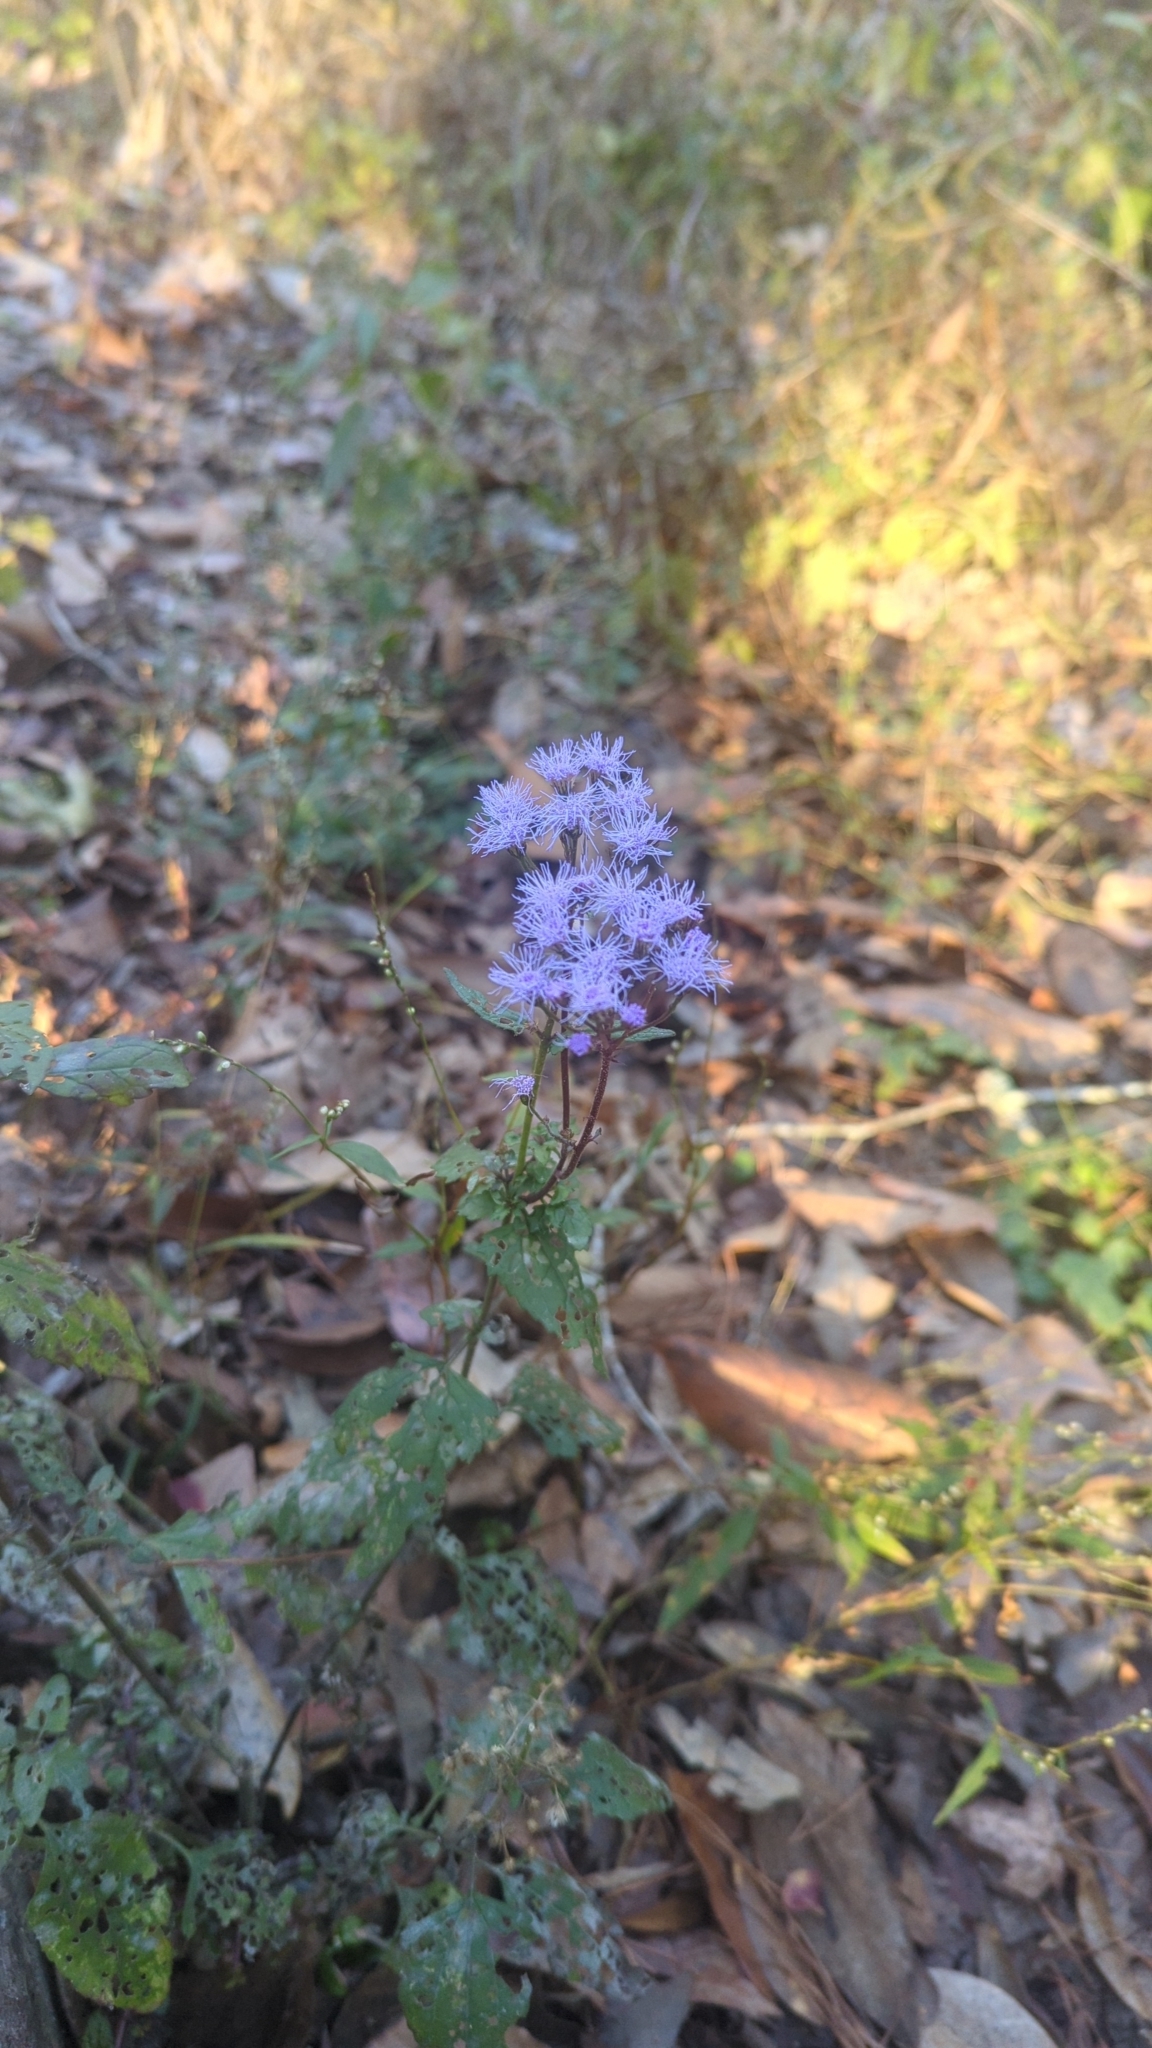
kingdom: Plantae
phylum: Tracheophyta
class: Magnoliopsida
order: Asterales
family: Asteraceae
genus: Conoclinium
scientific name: Conoclinium coelestinum
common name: Blue mistflower
